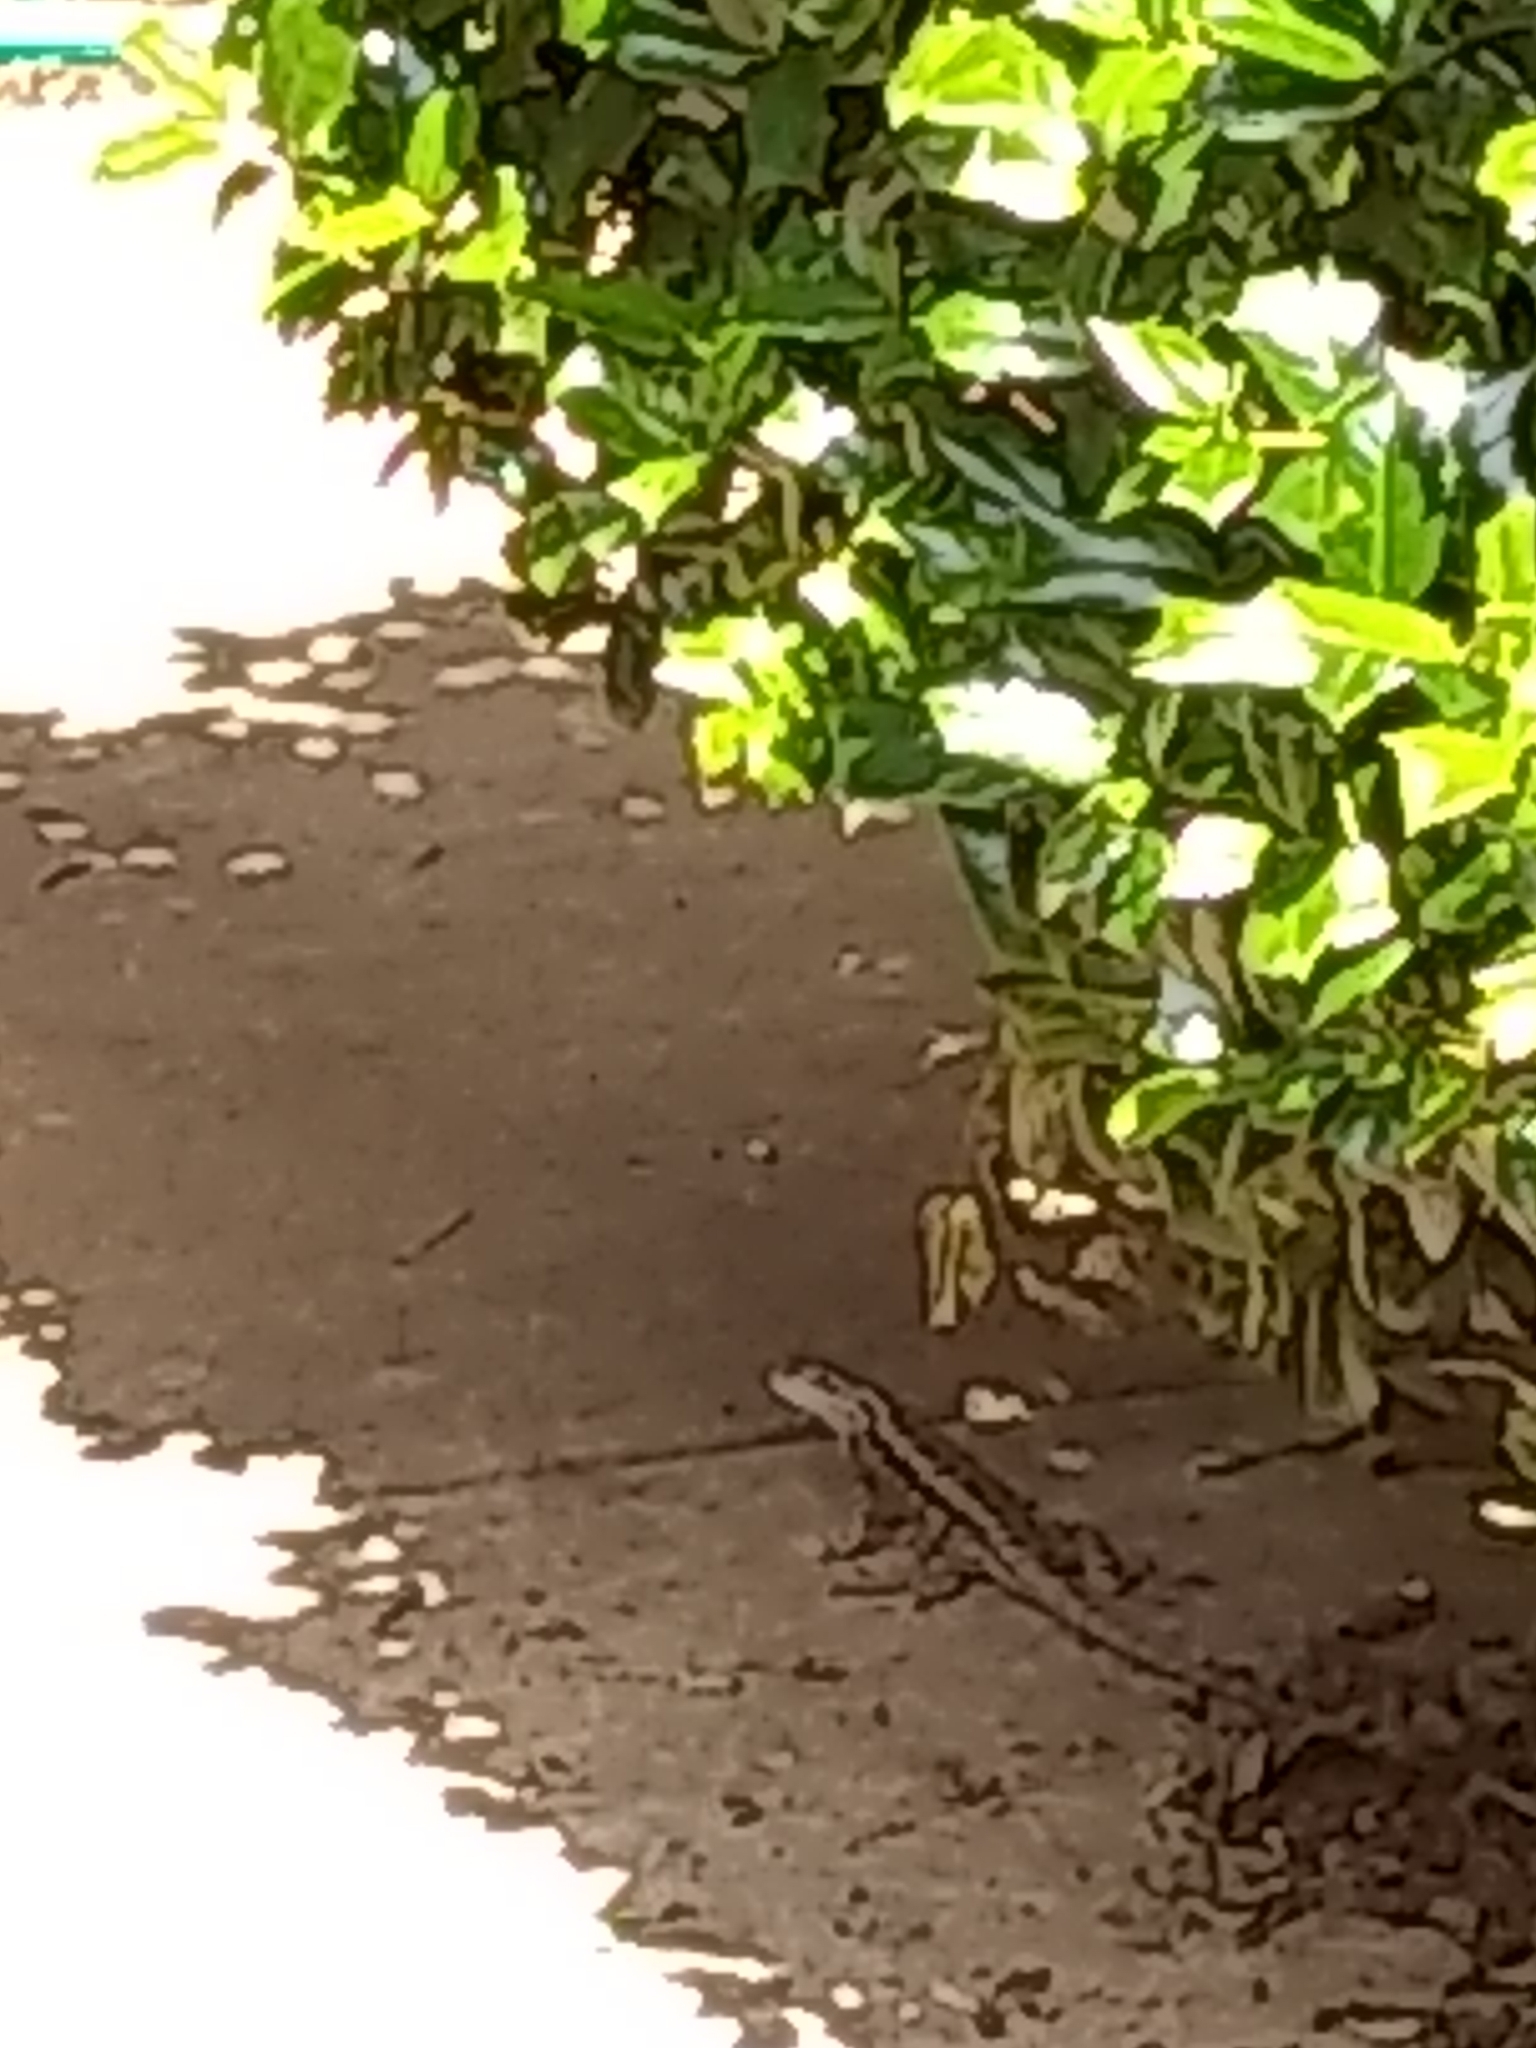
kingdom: Animalia
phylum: Chordata
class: Squamata
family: Phrynosomatidae
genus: Sceloporus
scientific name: Sceloporus olivaceus
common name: Texas spiny lizard
